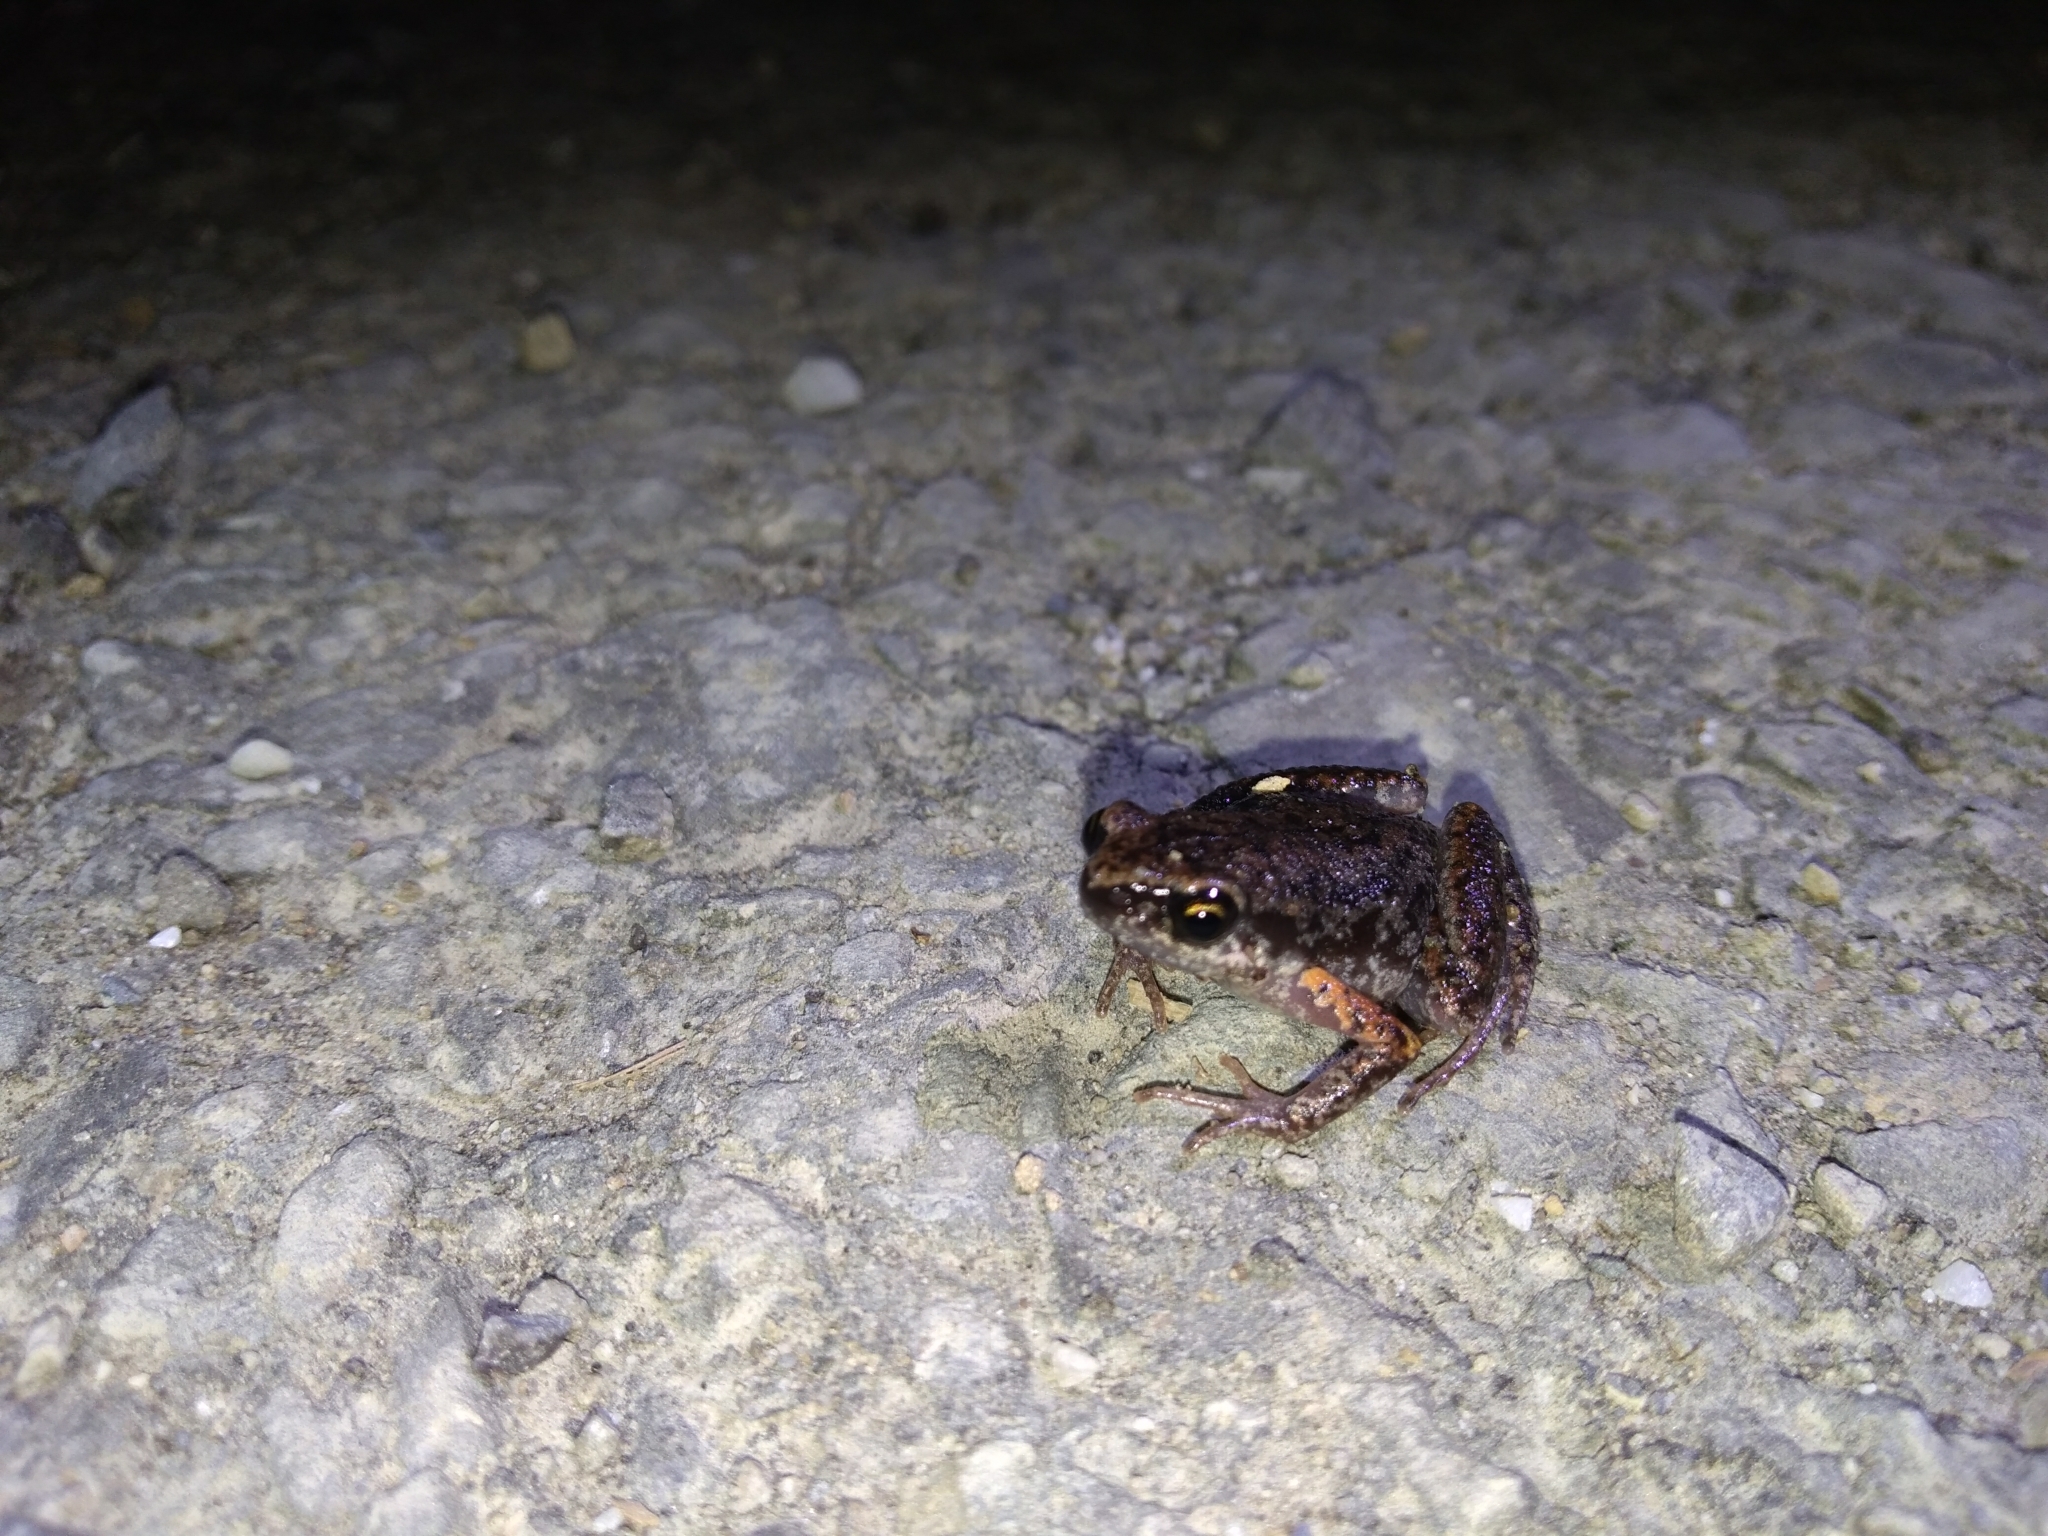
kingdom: Animalia
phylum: Chordata
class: Amphibia
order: Anura
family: Microhylidae
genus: Micryletta
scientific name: Micryletta steinegeri
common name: Stejneger's paddy frog
